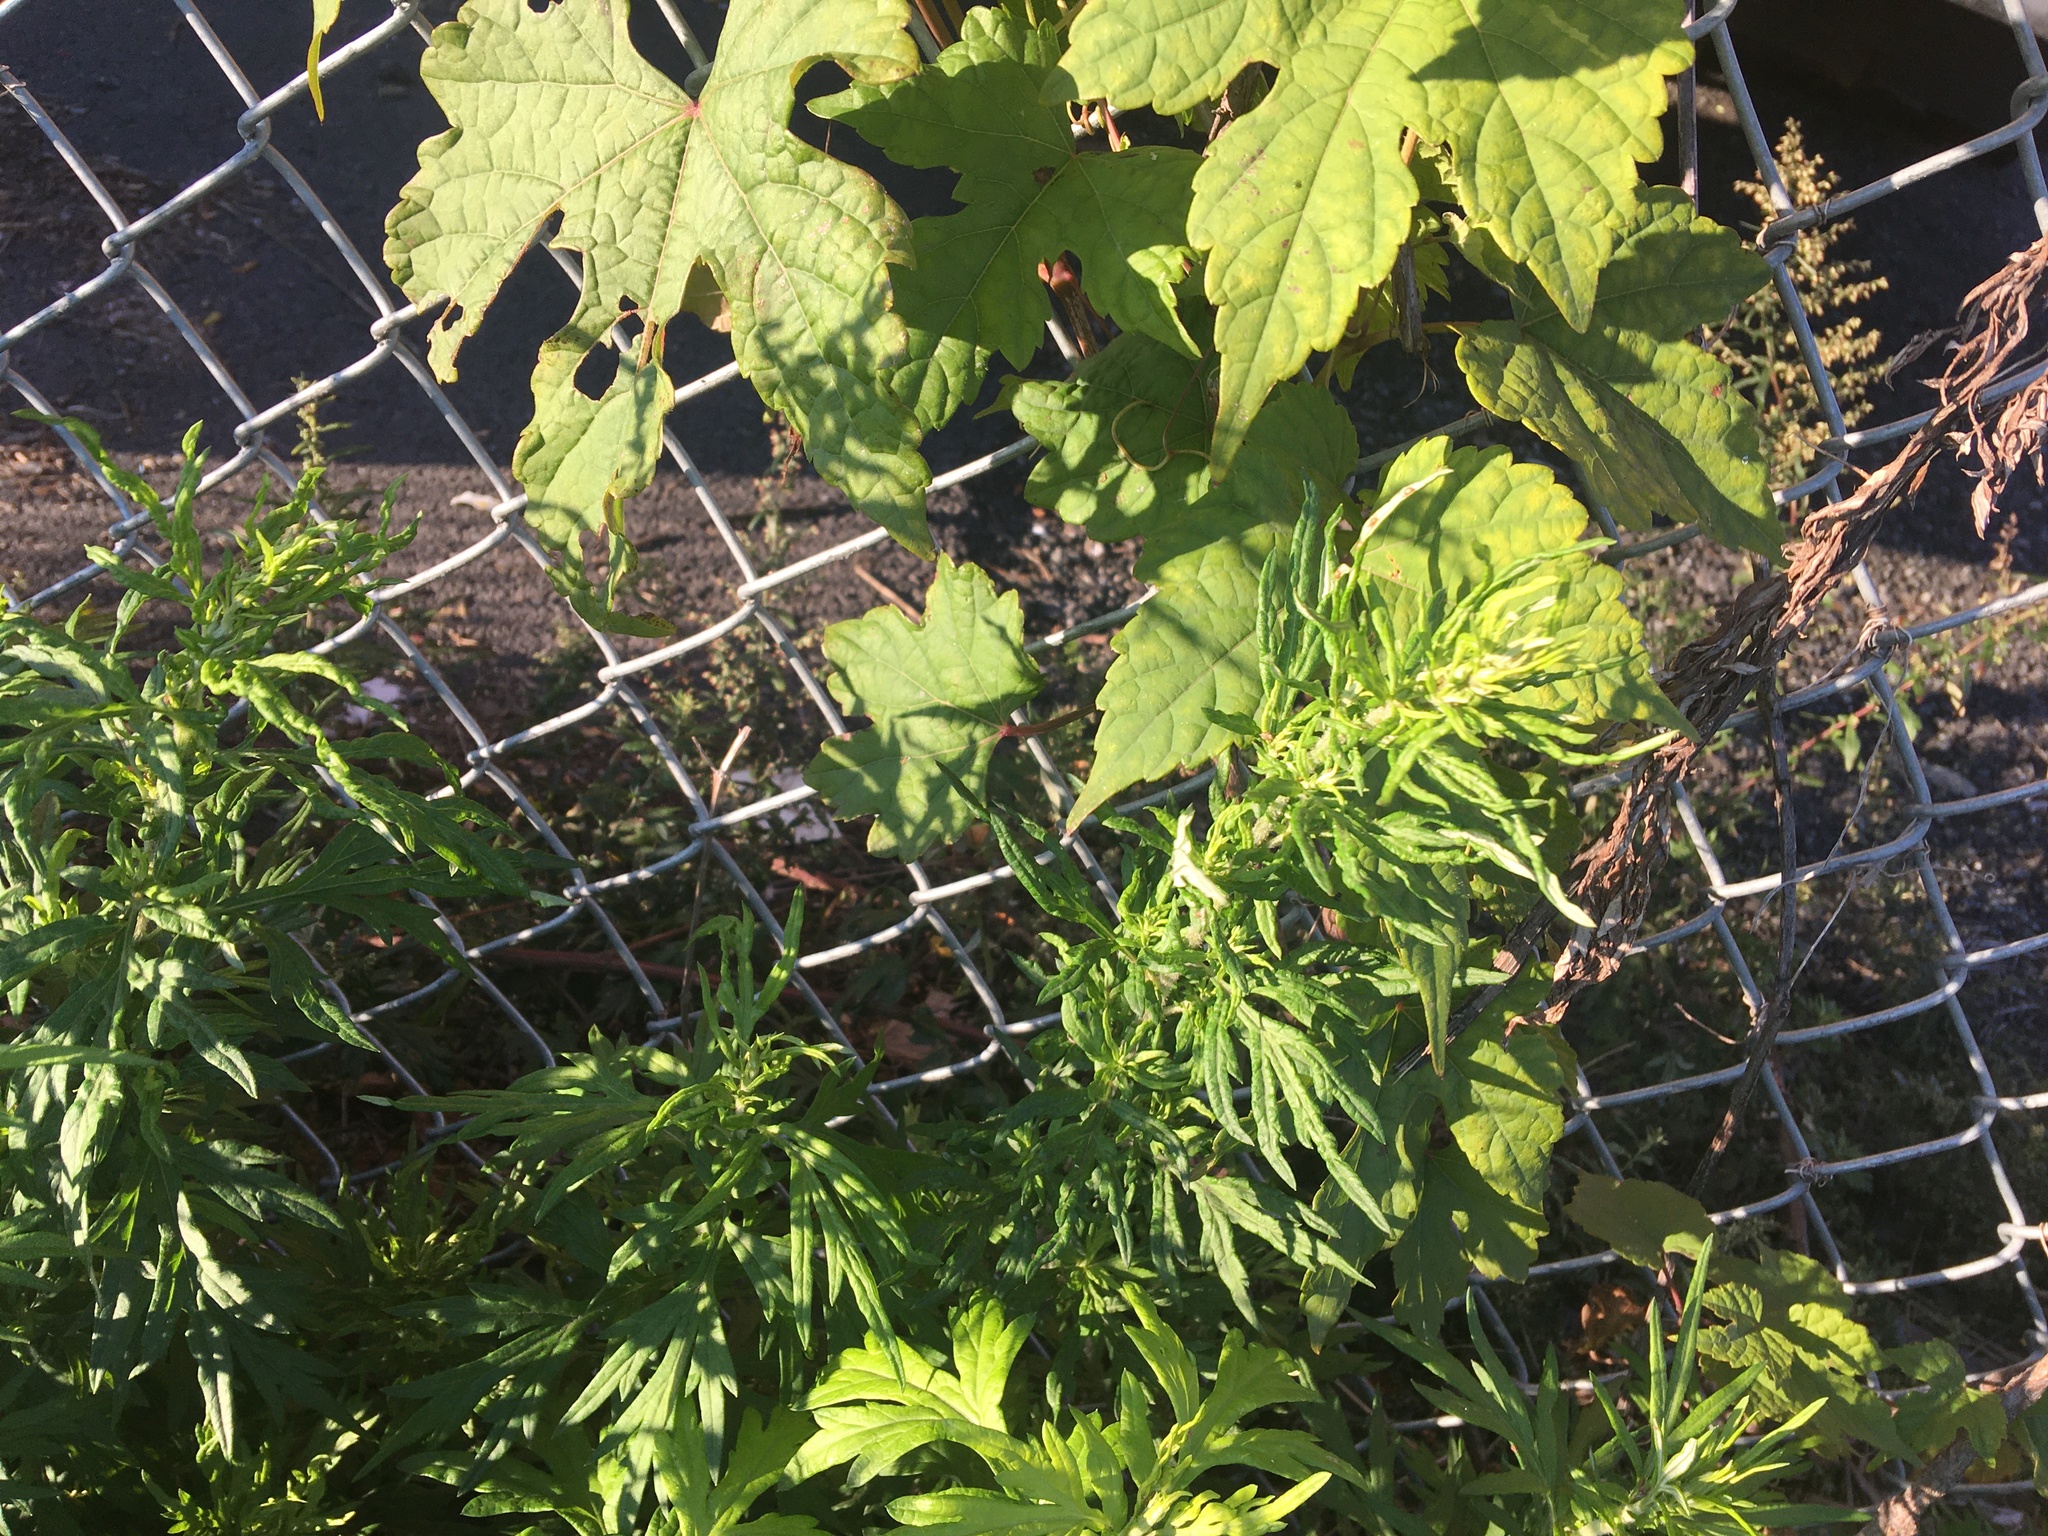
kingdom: Plantae
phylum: Tracheophyta
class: Magnoliopsida
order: Asterales
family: Asteraceae
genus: Artemisia
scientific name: Artemisia vulgaris
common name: Mugwort
